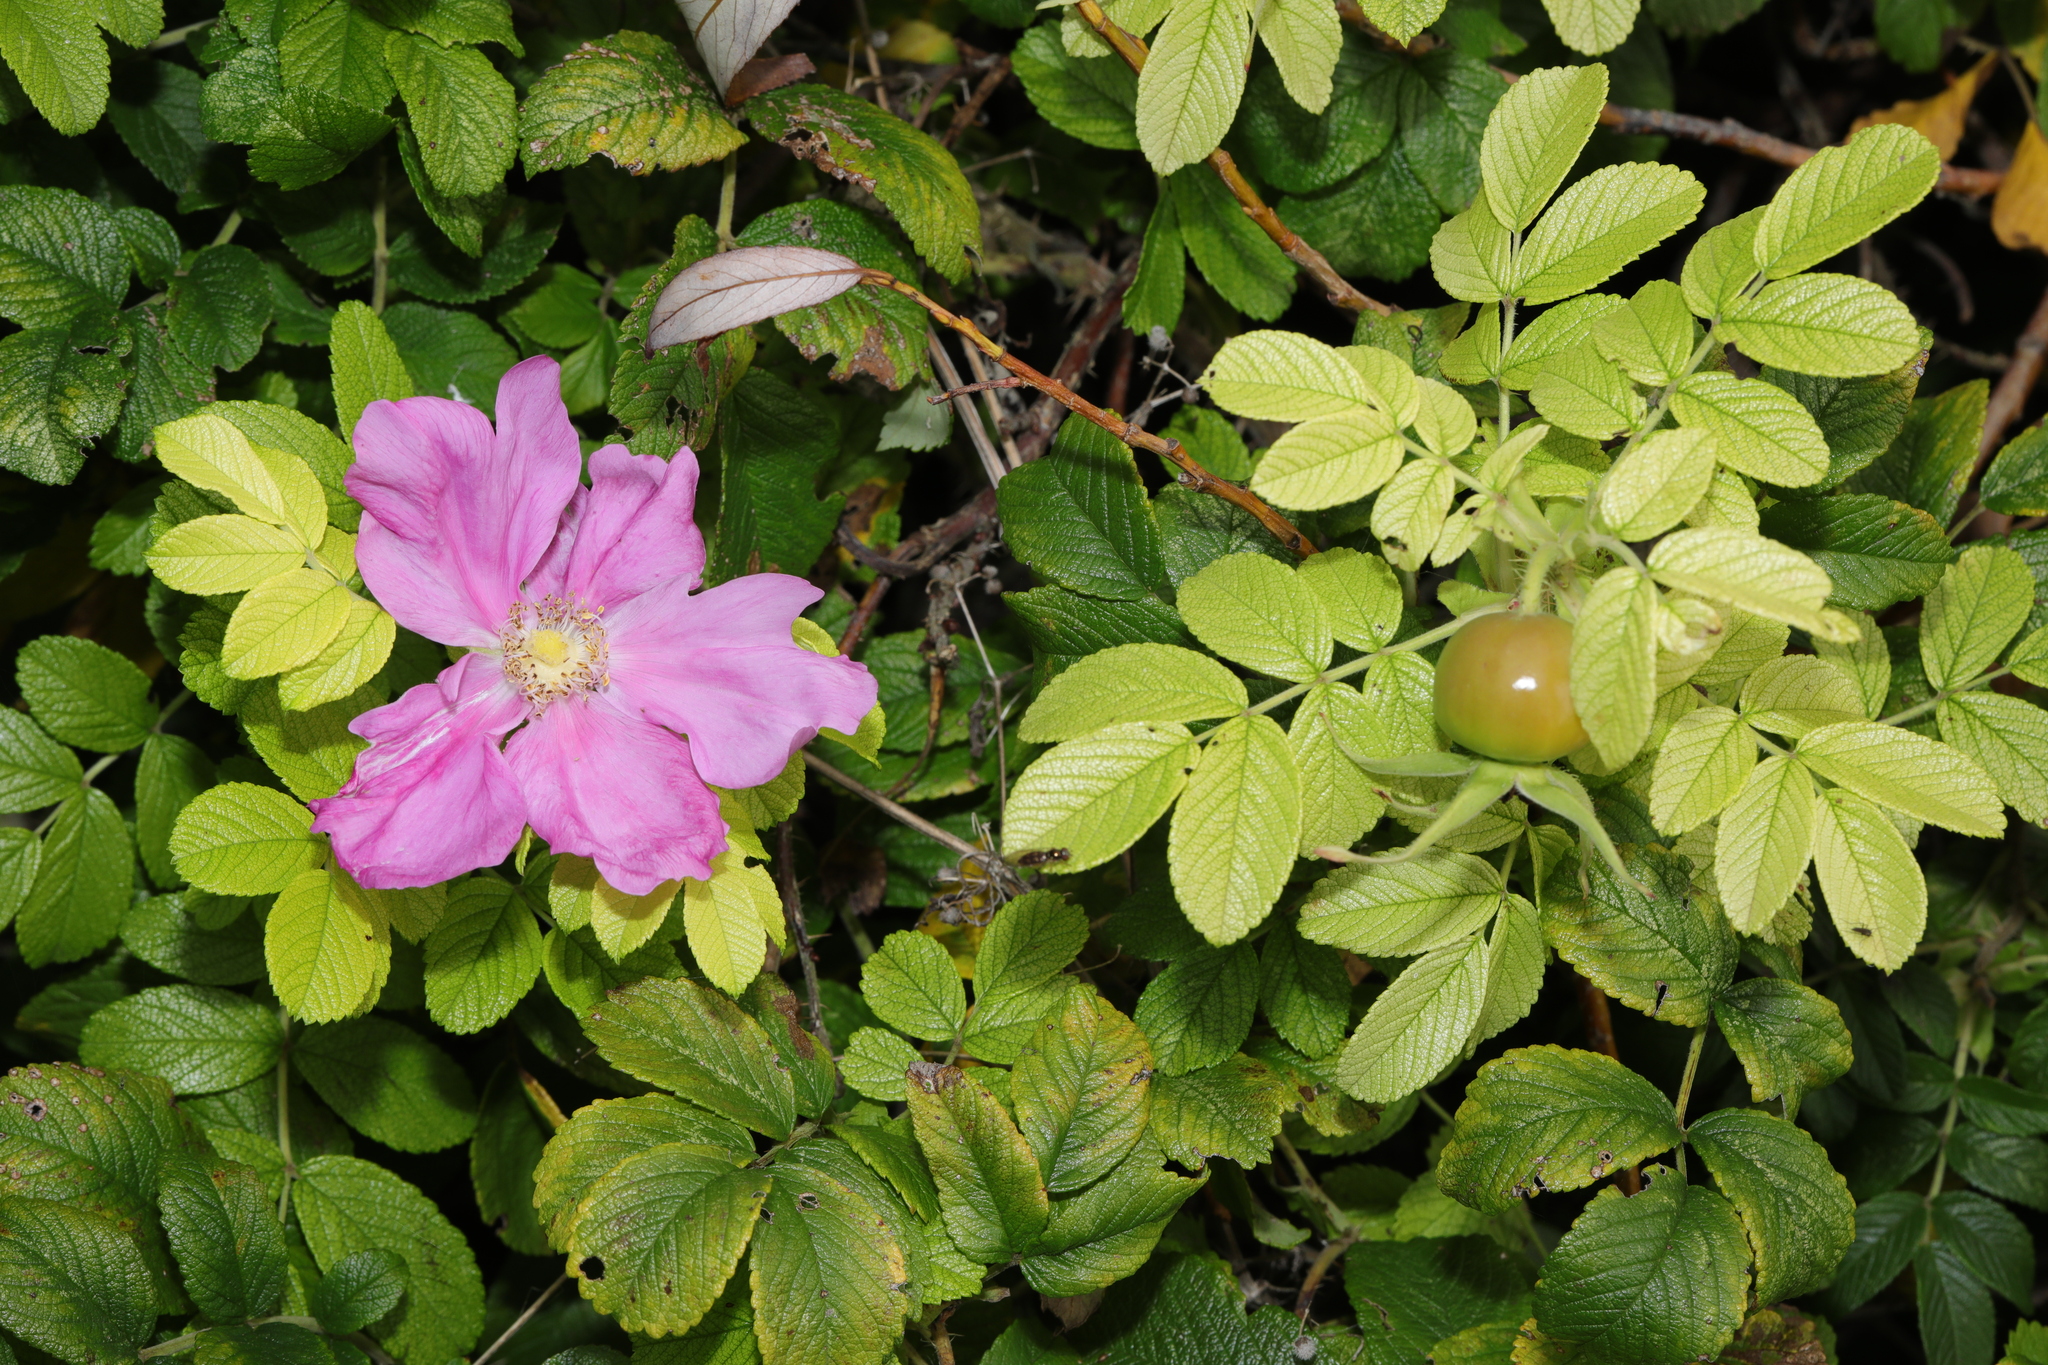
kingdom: Plantae
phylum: Tracheophyta
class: Magnoliopsida
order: Rosales
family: Rosaceae
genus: Rosa
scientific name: Rosa rugosa
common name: Japanese rose
